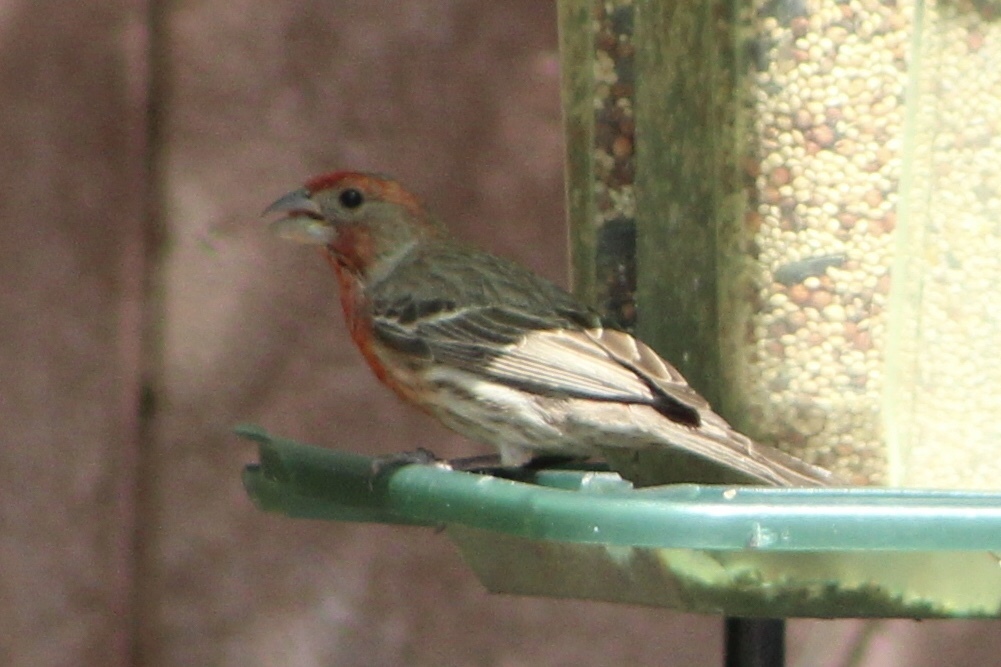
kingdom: Animalia
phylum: Chordata
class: Aves
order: Passeriformes
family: Fringillidae
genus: Haemorhous
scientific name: Haemorhous mexicanus
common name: House finch
